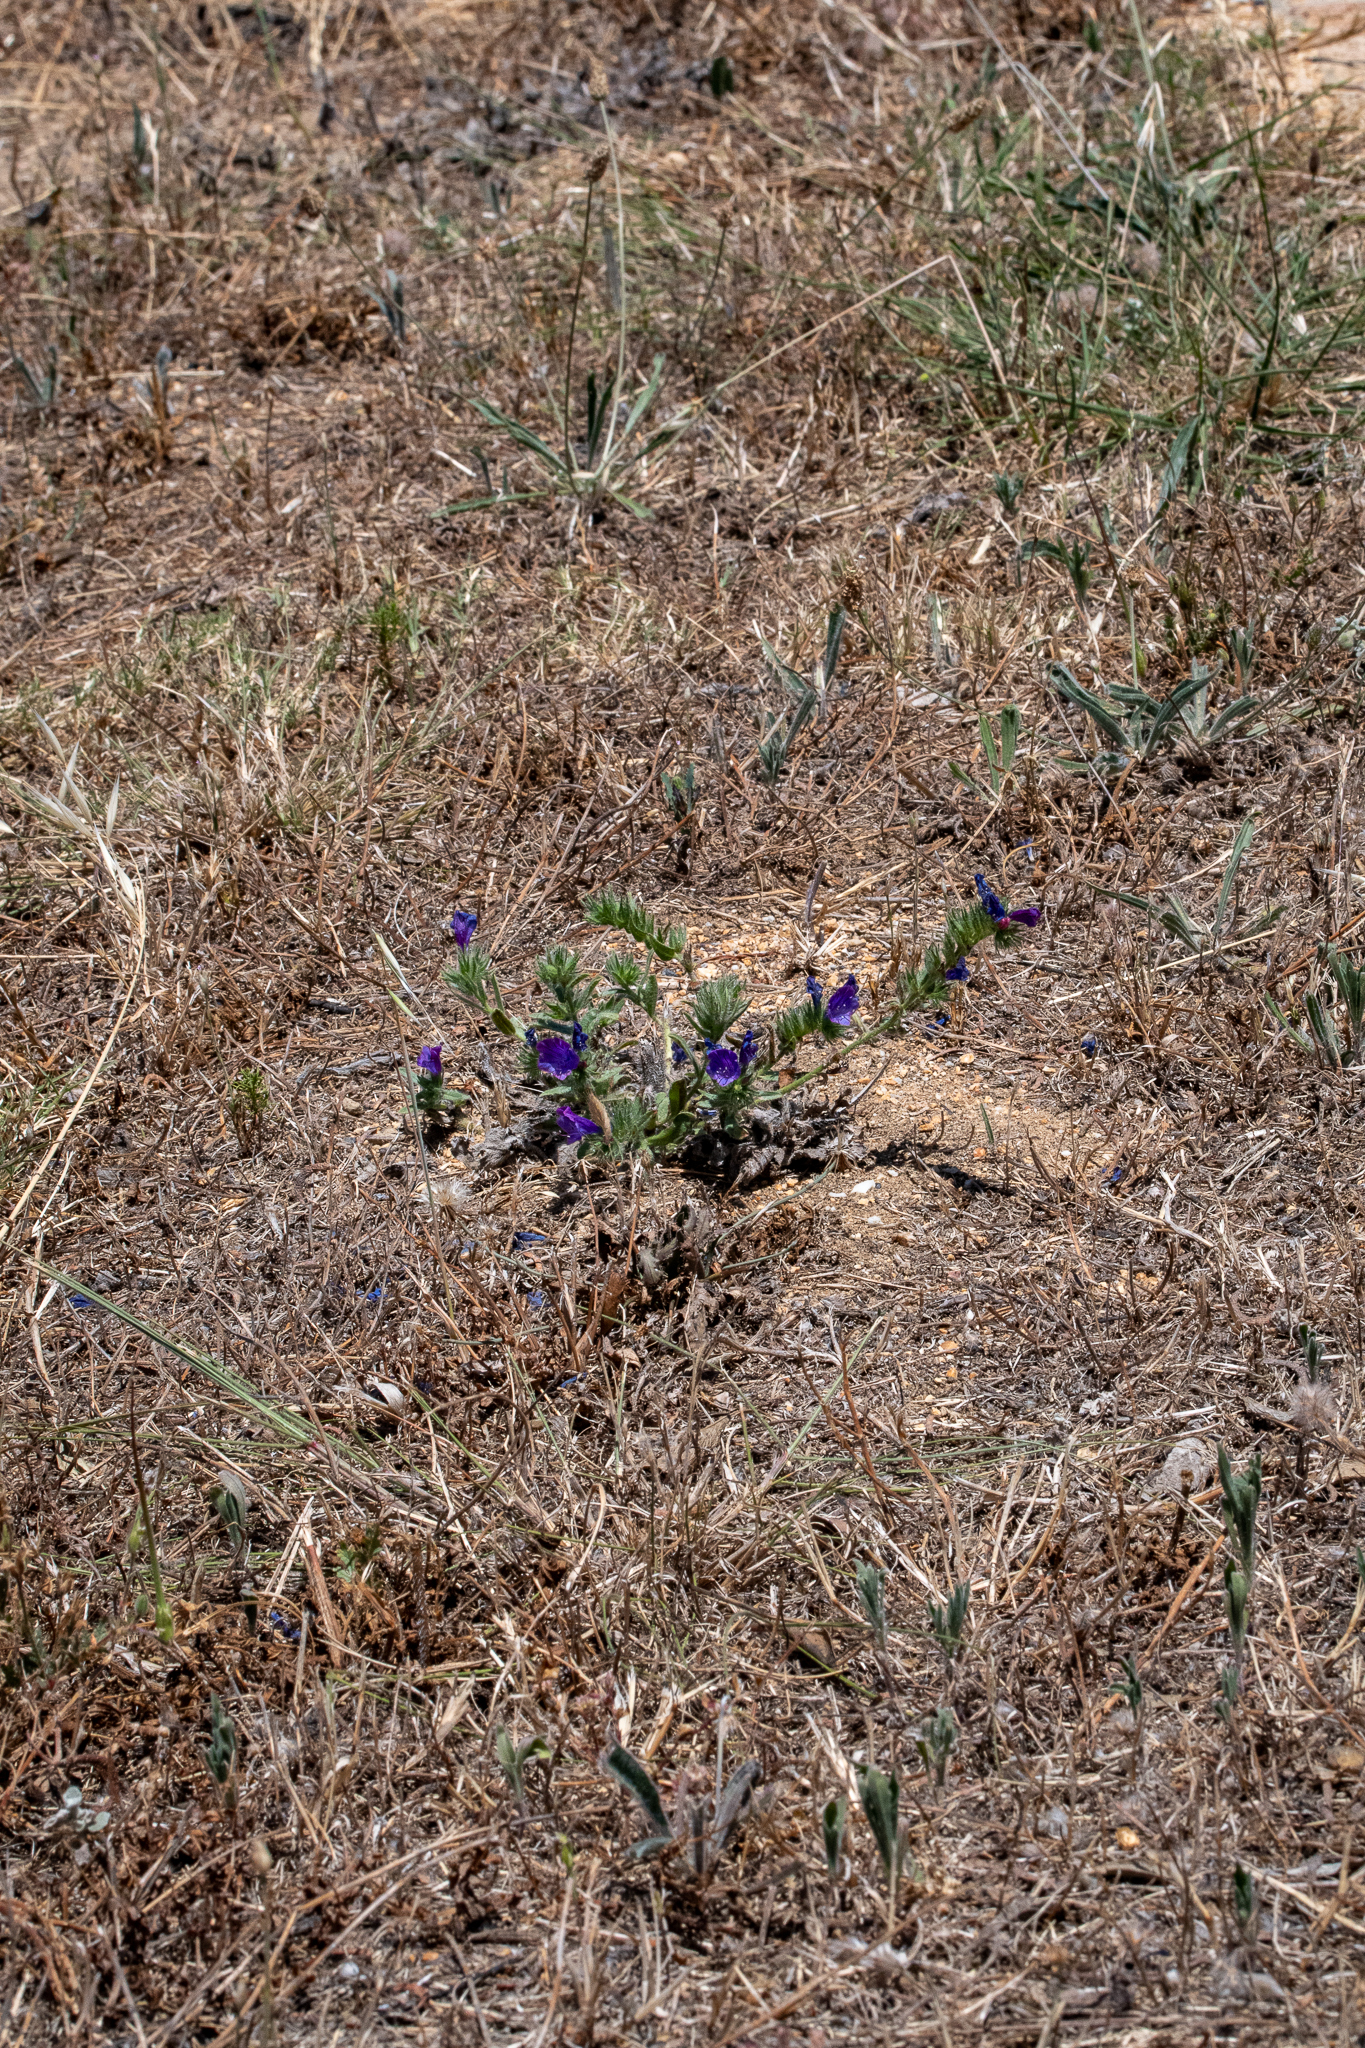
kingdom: Plantae
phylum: Tracheophyta
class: Magnoliopsida
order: Boraginales
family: Boraginaceae
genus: Echium
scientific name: Echium plantagineum
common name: Purple viper's-bugloss
